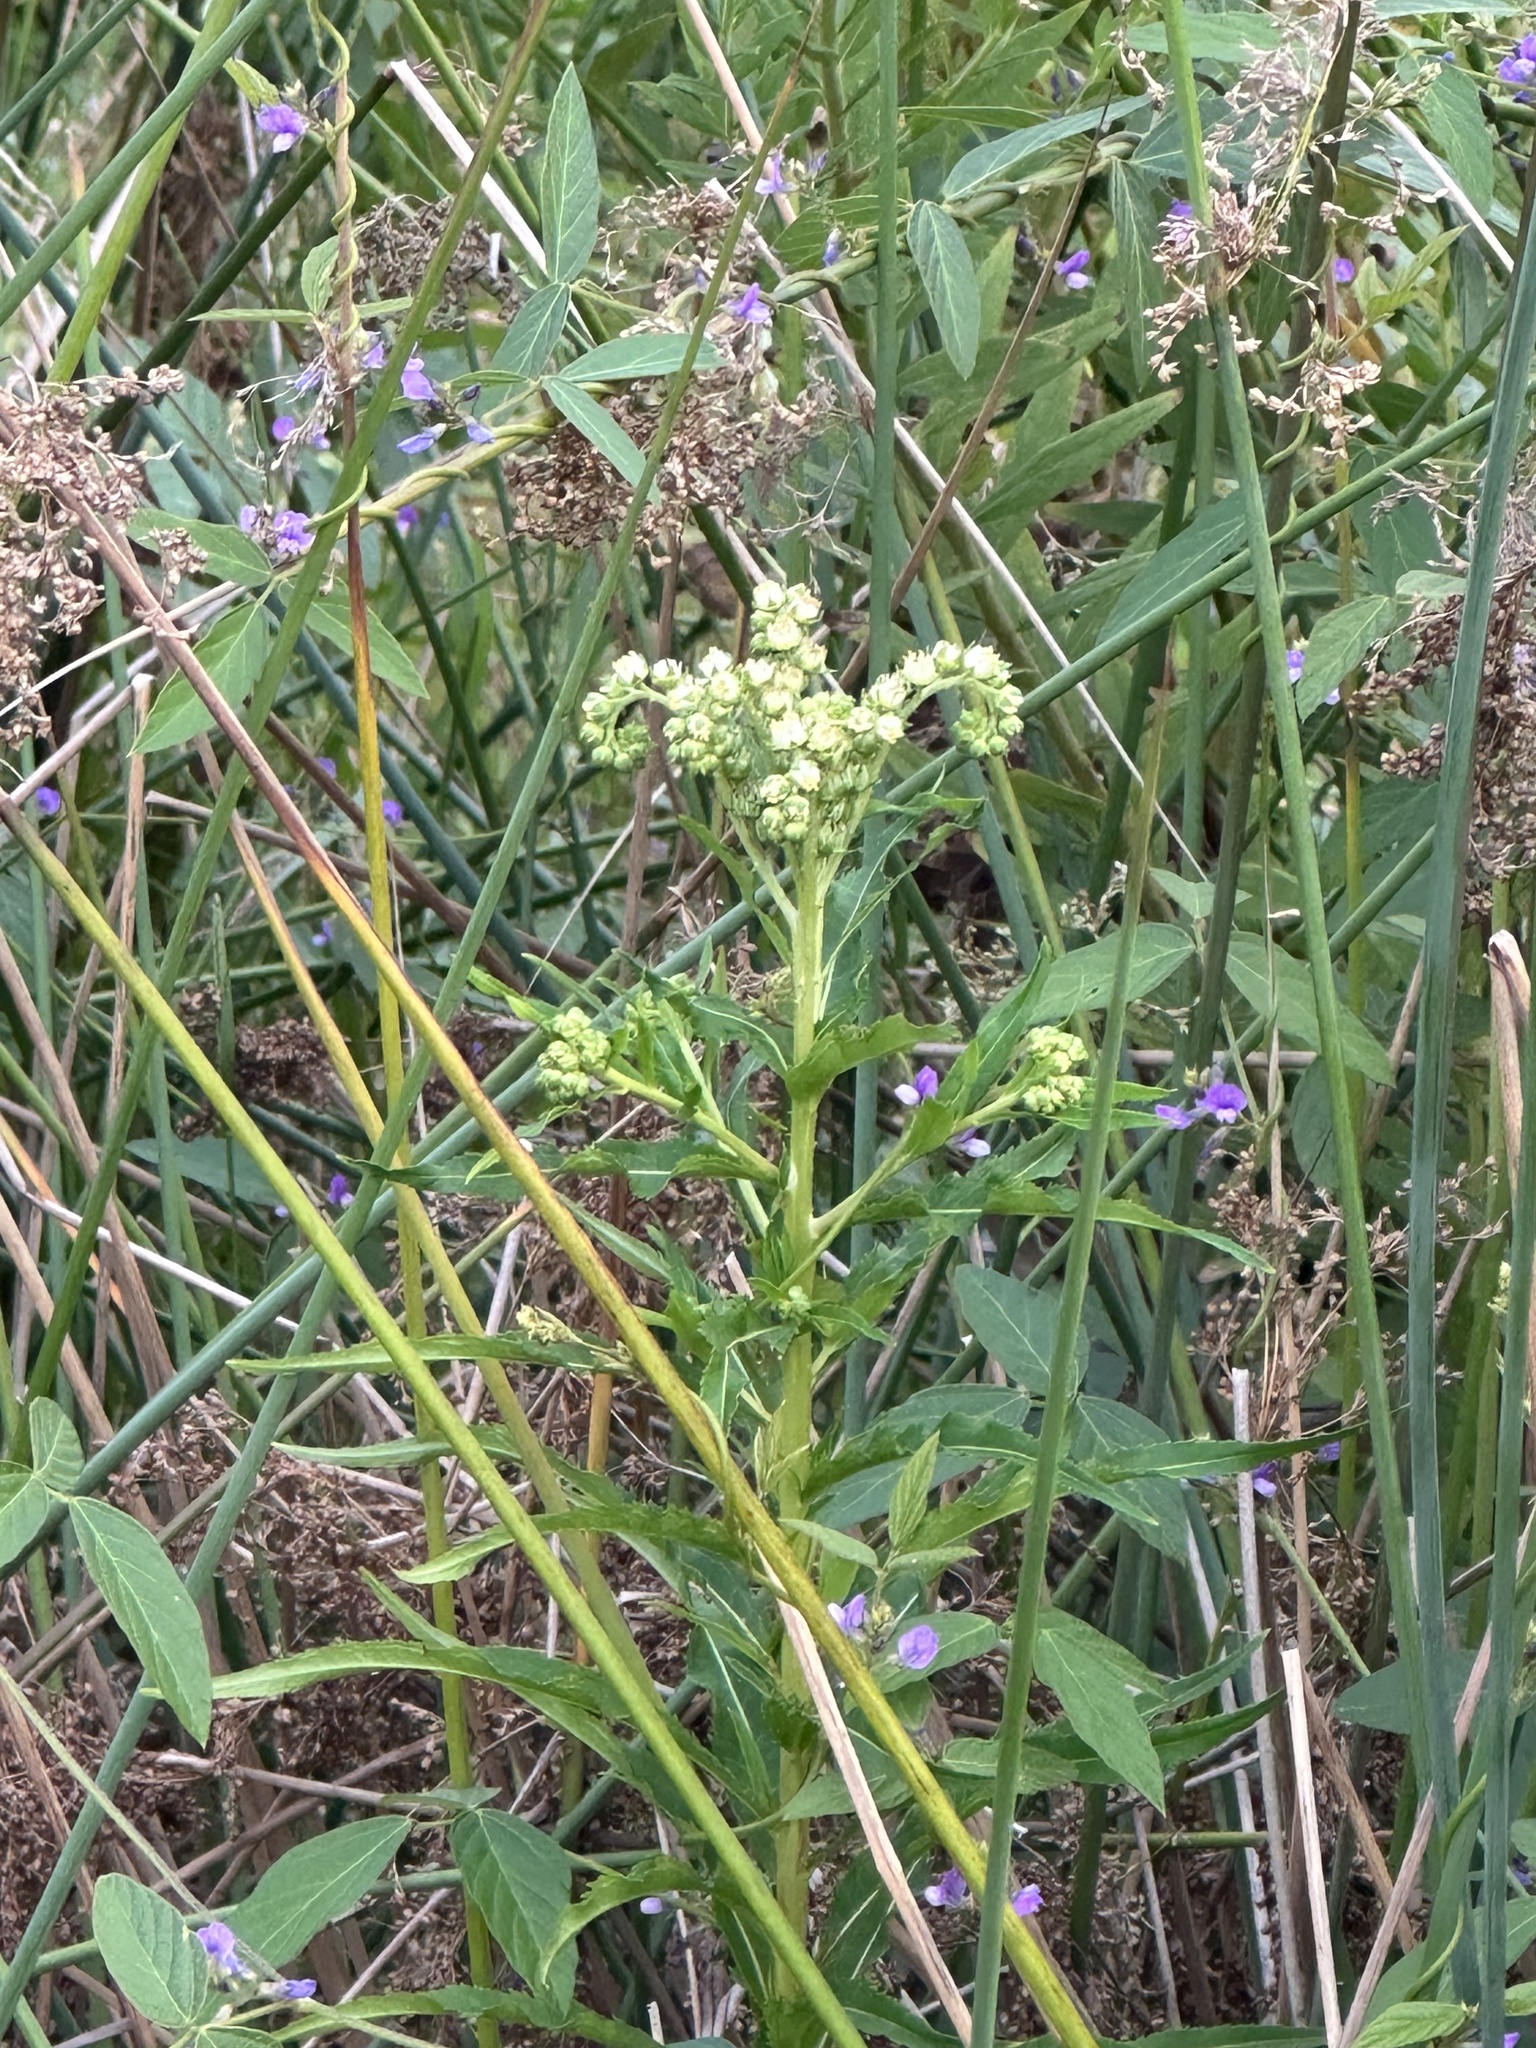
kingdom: Plantae
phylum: Tracheophyta
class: Magnoliopsida
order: Saxifragales
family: Penthoraceae
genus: Penthorum
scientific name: Penthorum chinense
